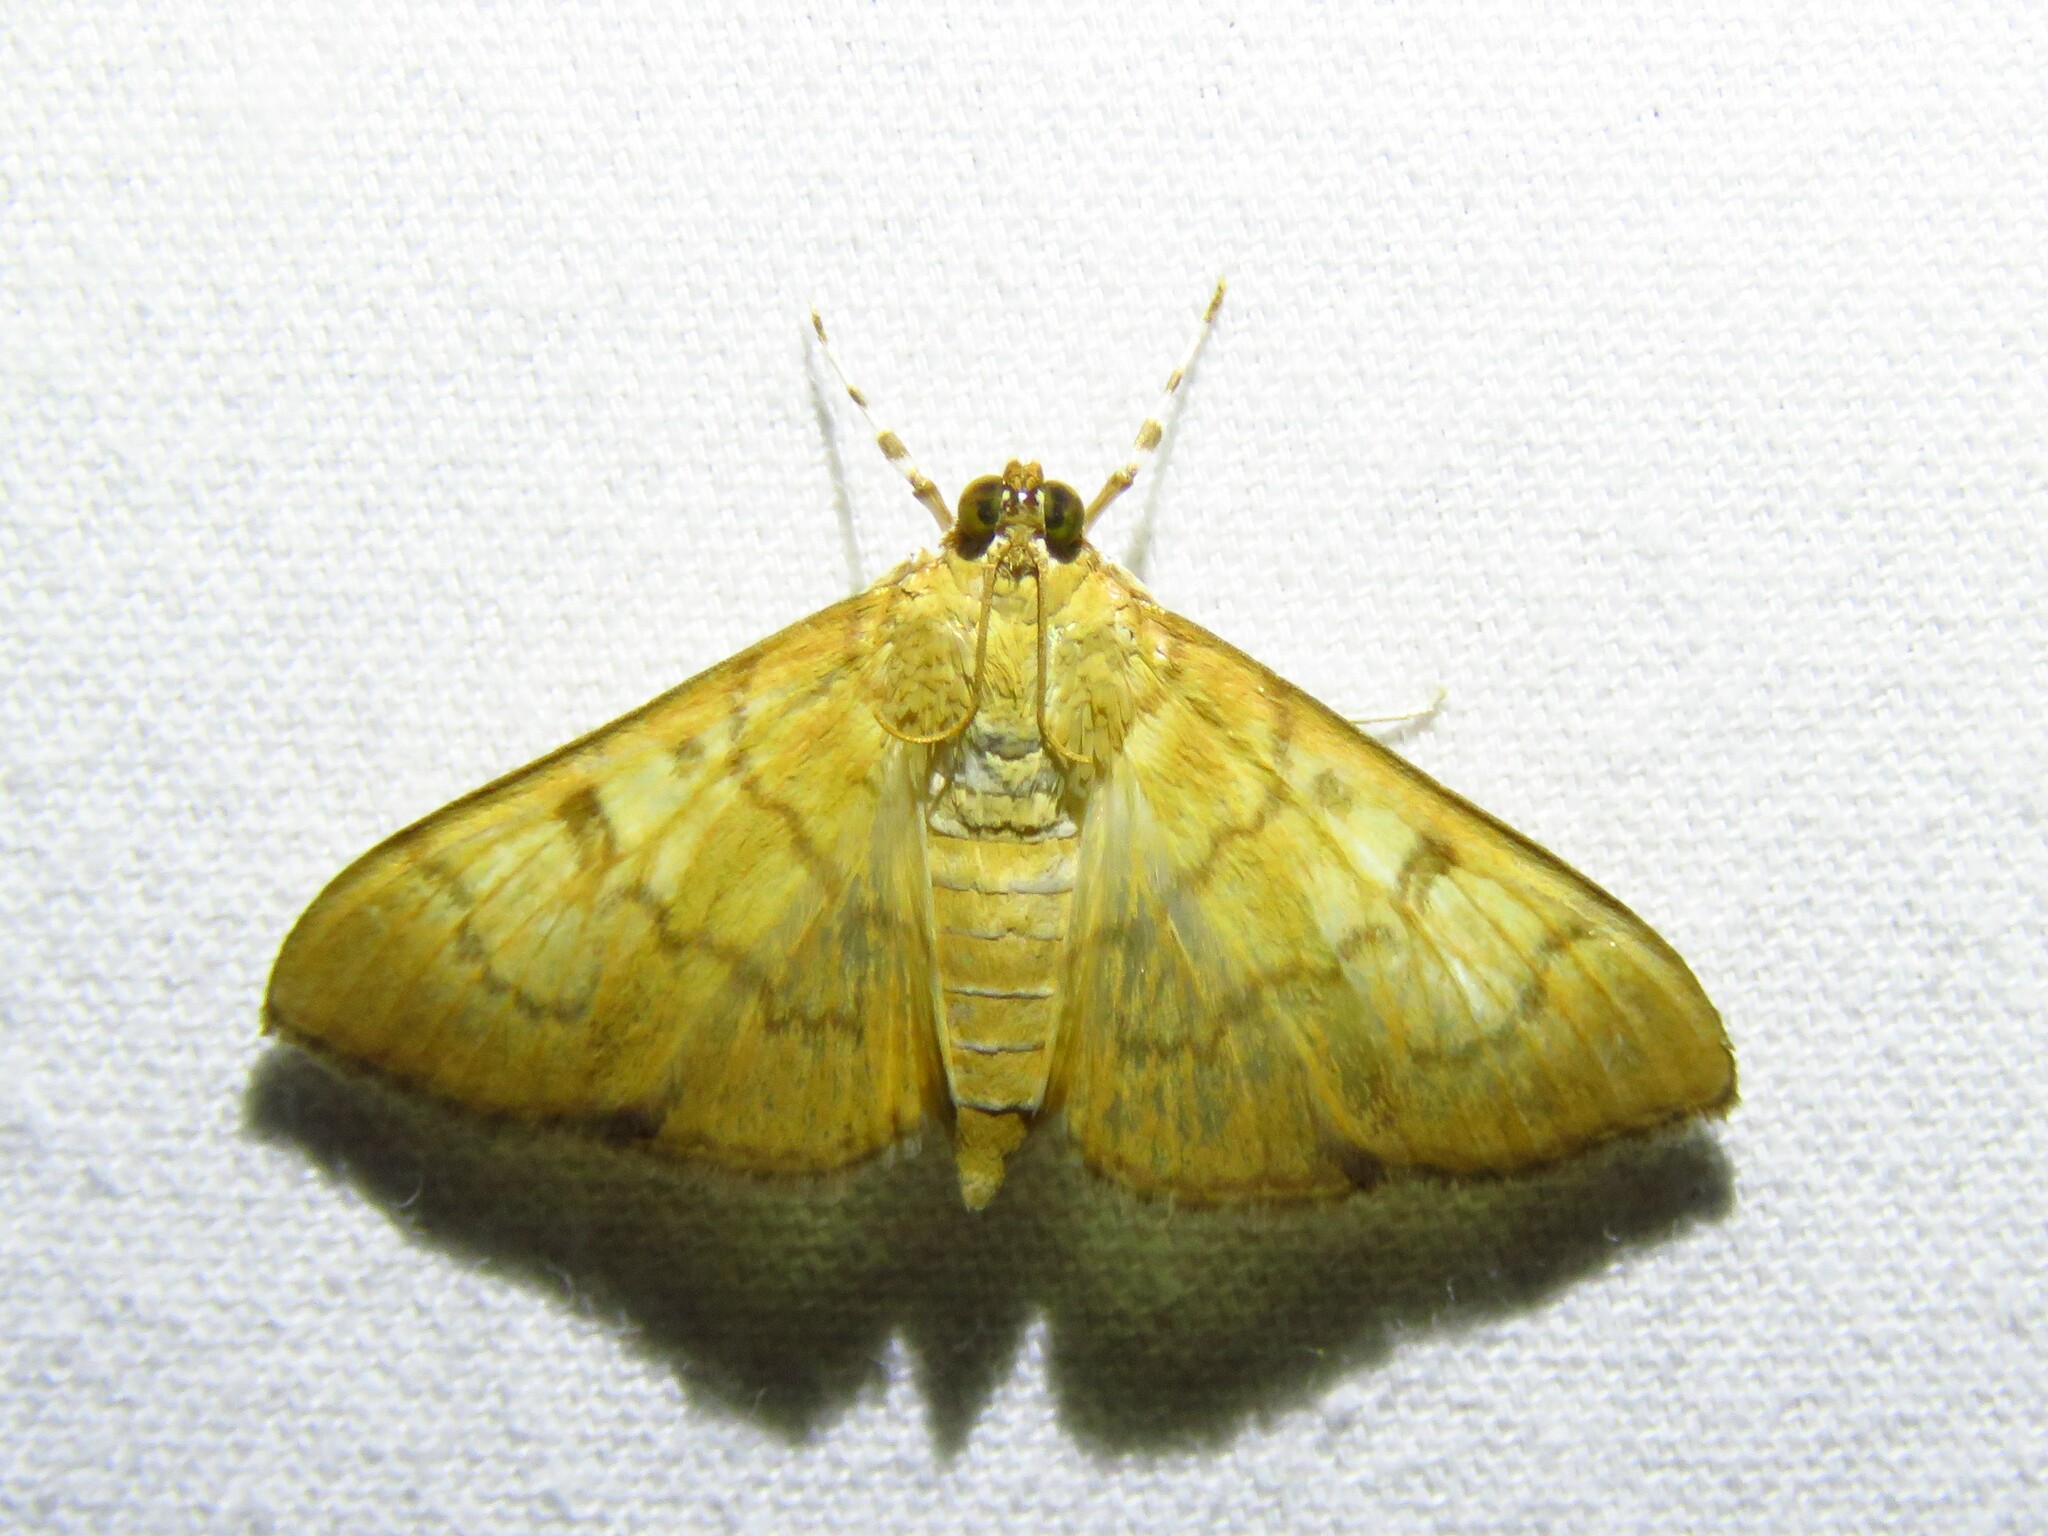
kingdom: Animalia
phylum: Arthropoda
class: Insecta
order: Lepidoptera
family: Crambidae
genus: Syllepte
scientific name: Syllepte obscuralis
